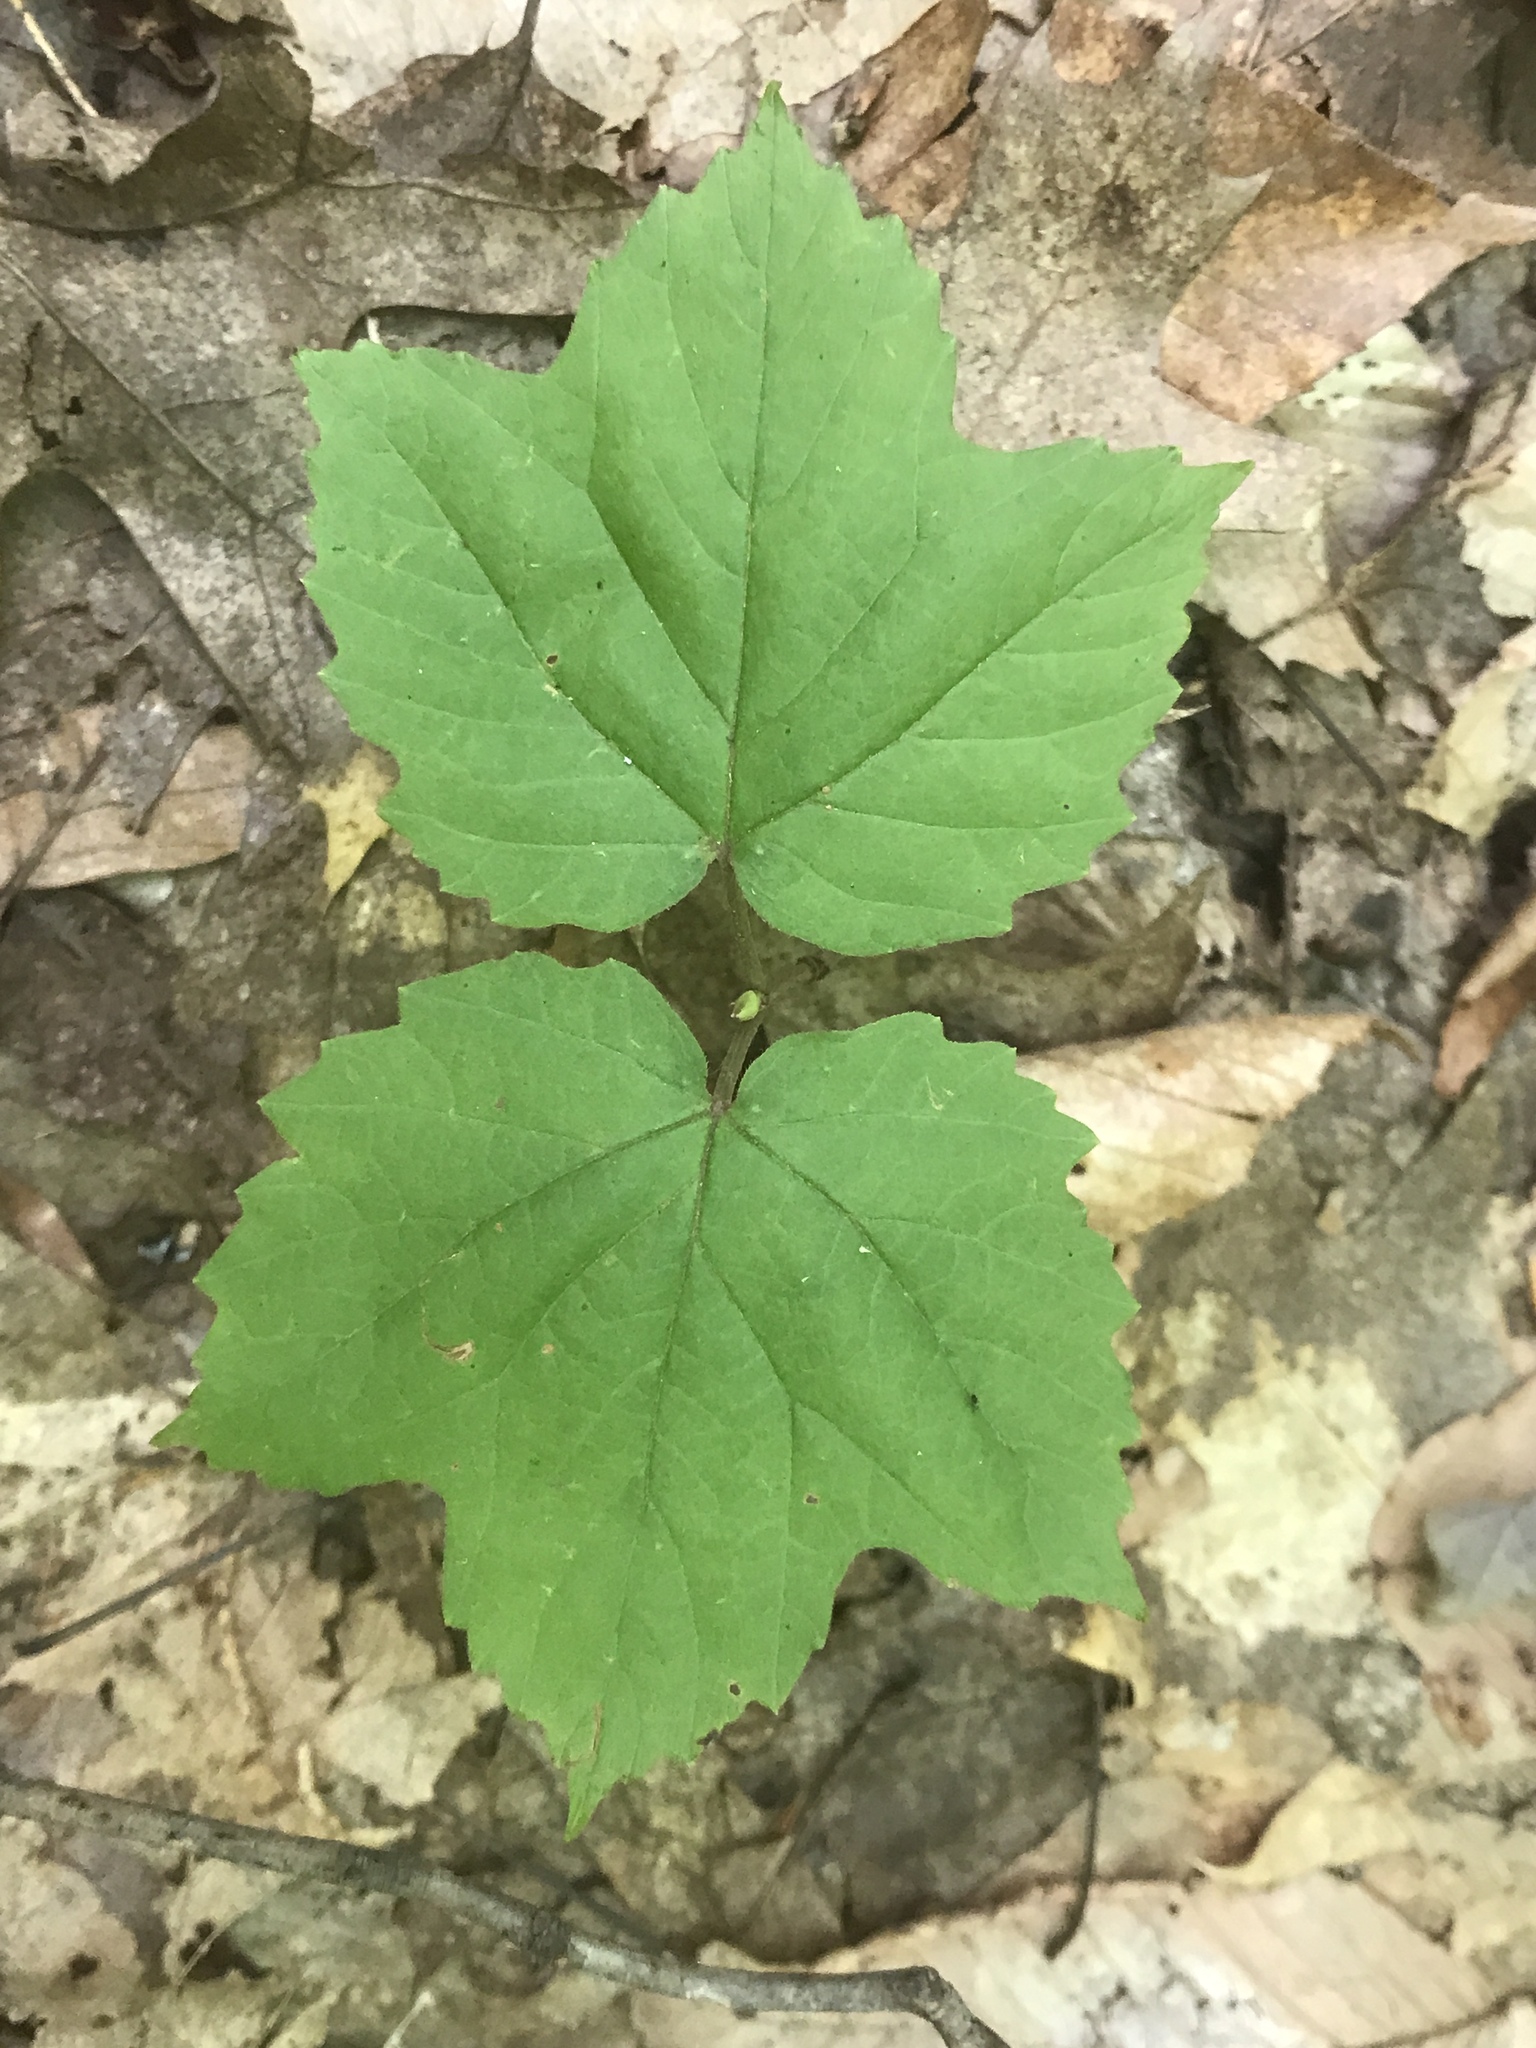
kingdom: Plantae
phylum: Tracheophyta
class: Magnoliopsida
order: Dipsacales
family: Viburnaceae
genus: Viburnum
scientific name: Viburnum acerifolium
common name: Dockmackie
